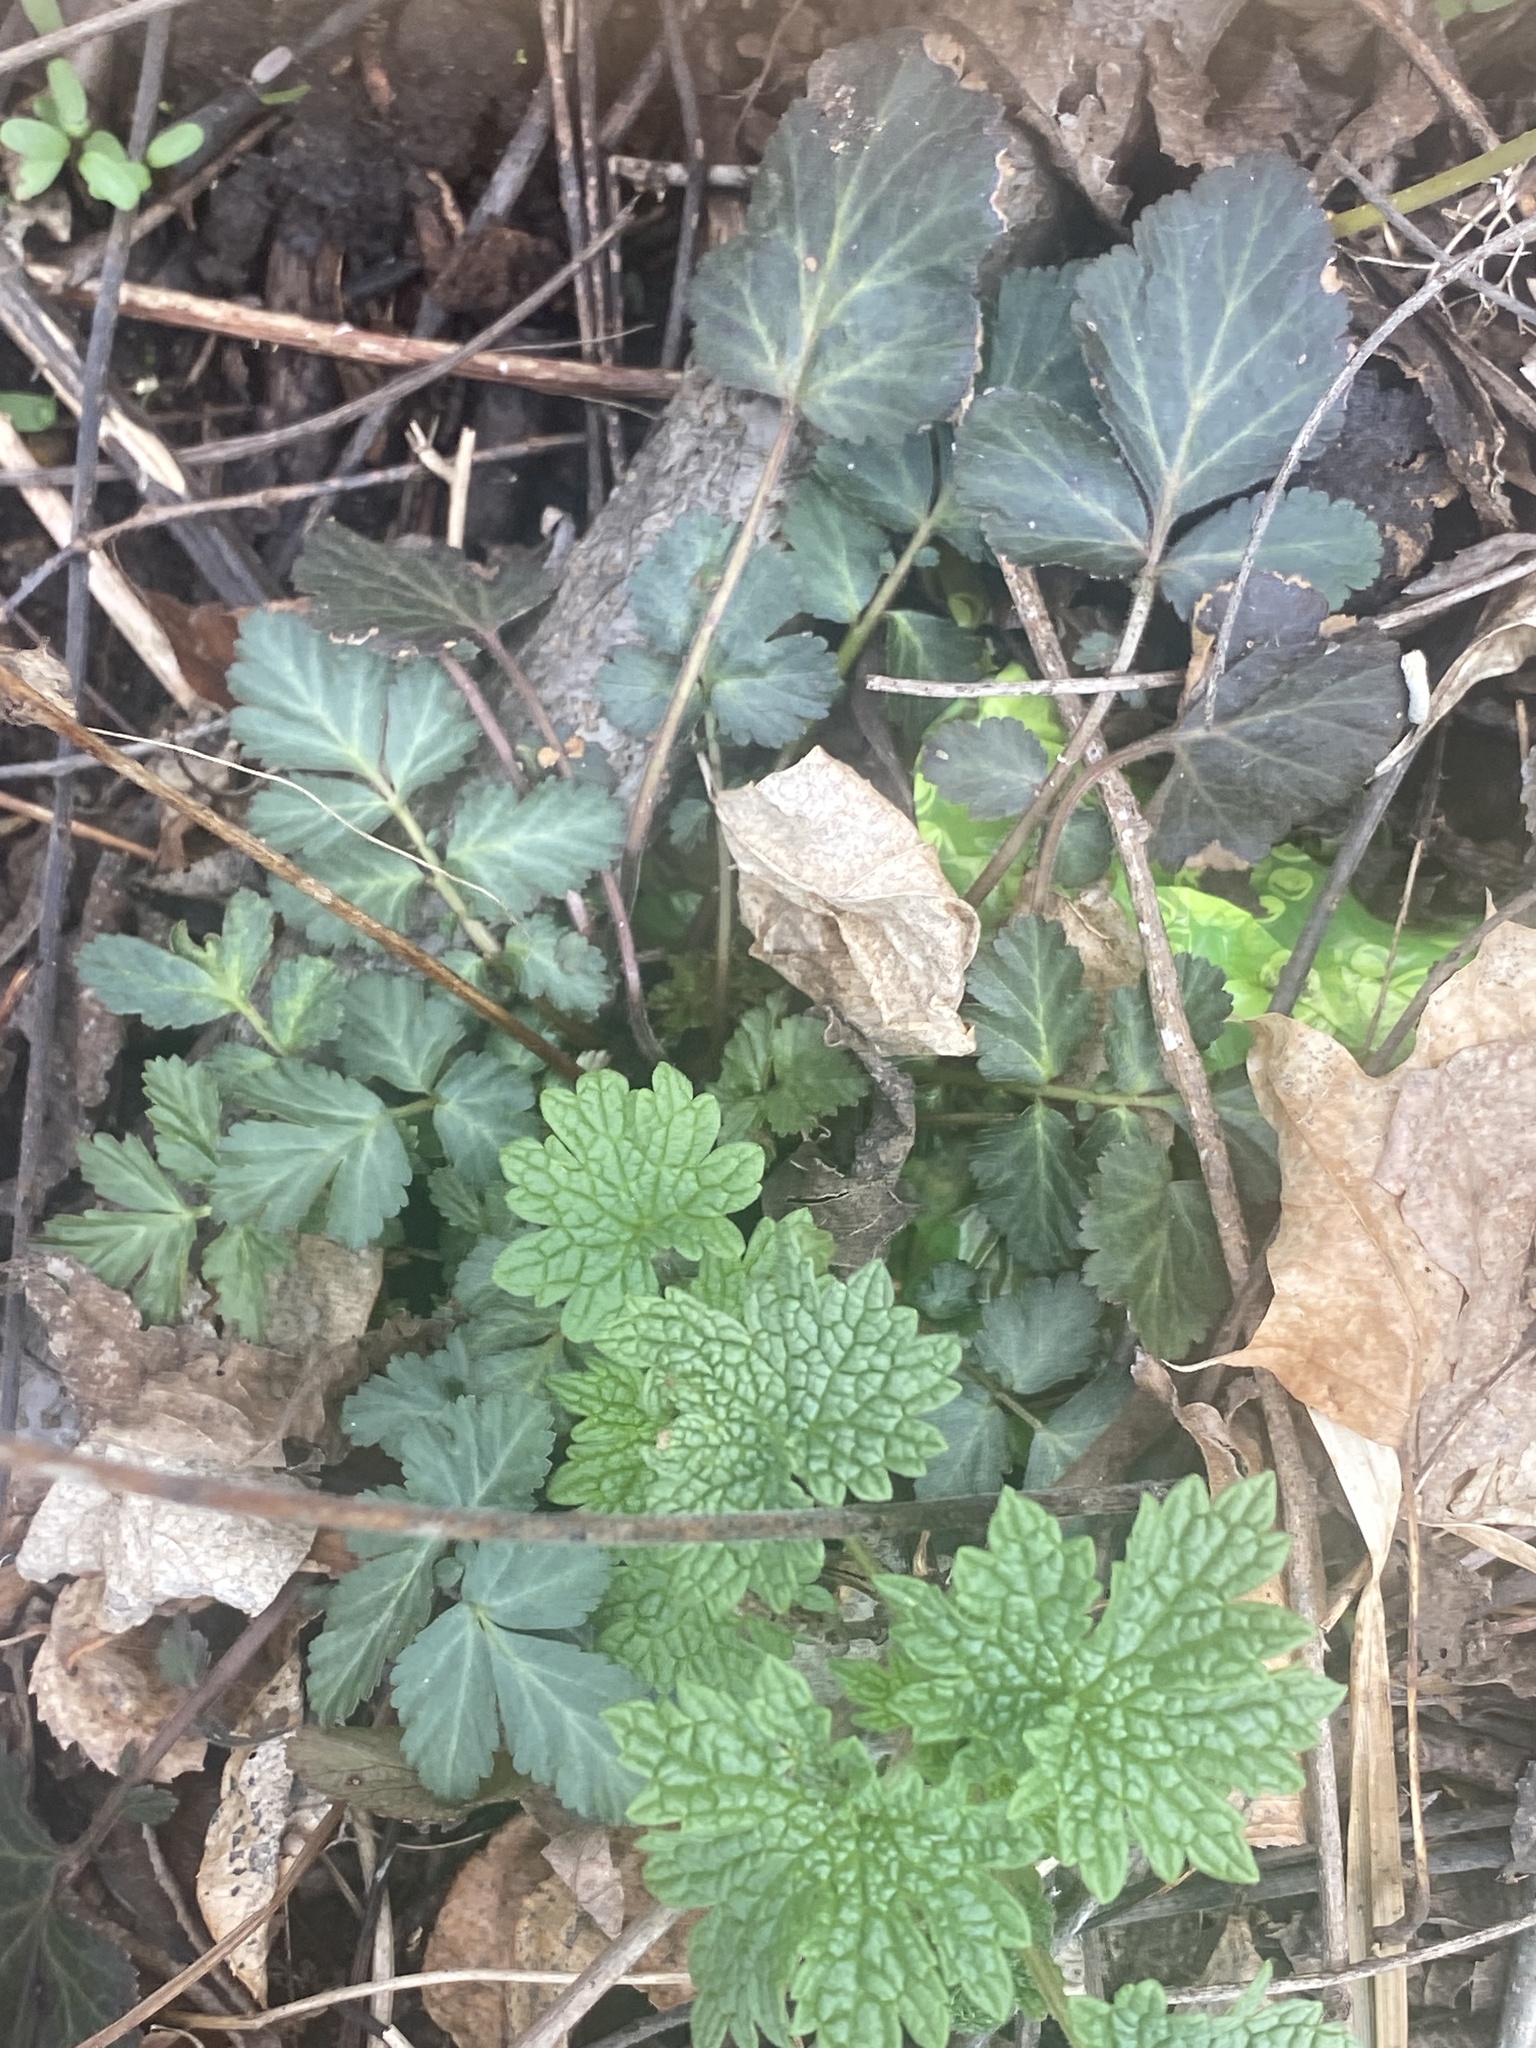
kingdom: Plantae
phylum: Tracheophyta
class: Magnoliopsida
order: Rosales
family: Rosaceae
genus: Geum
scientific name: Geum canadense
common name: White avens
